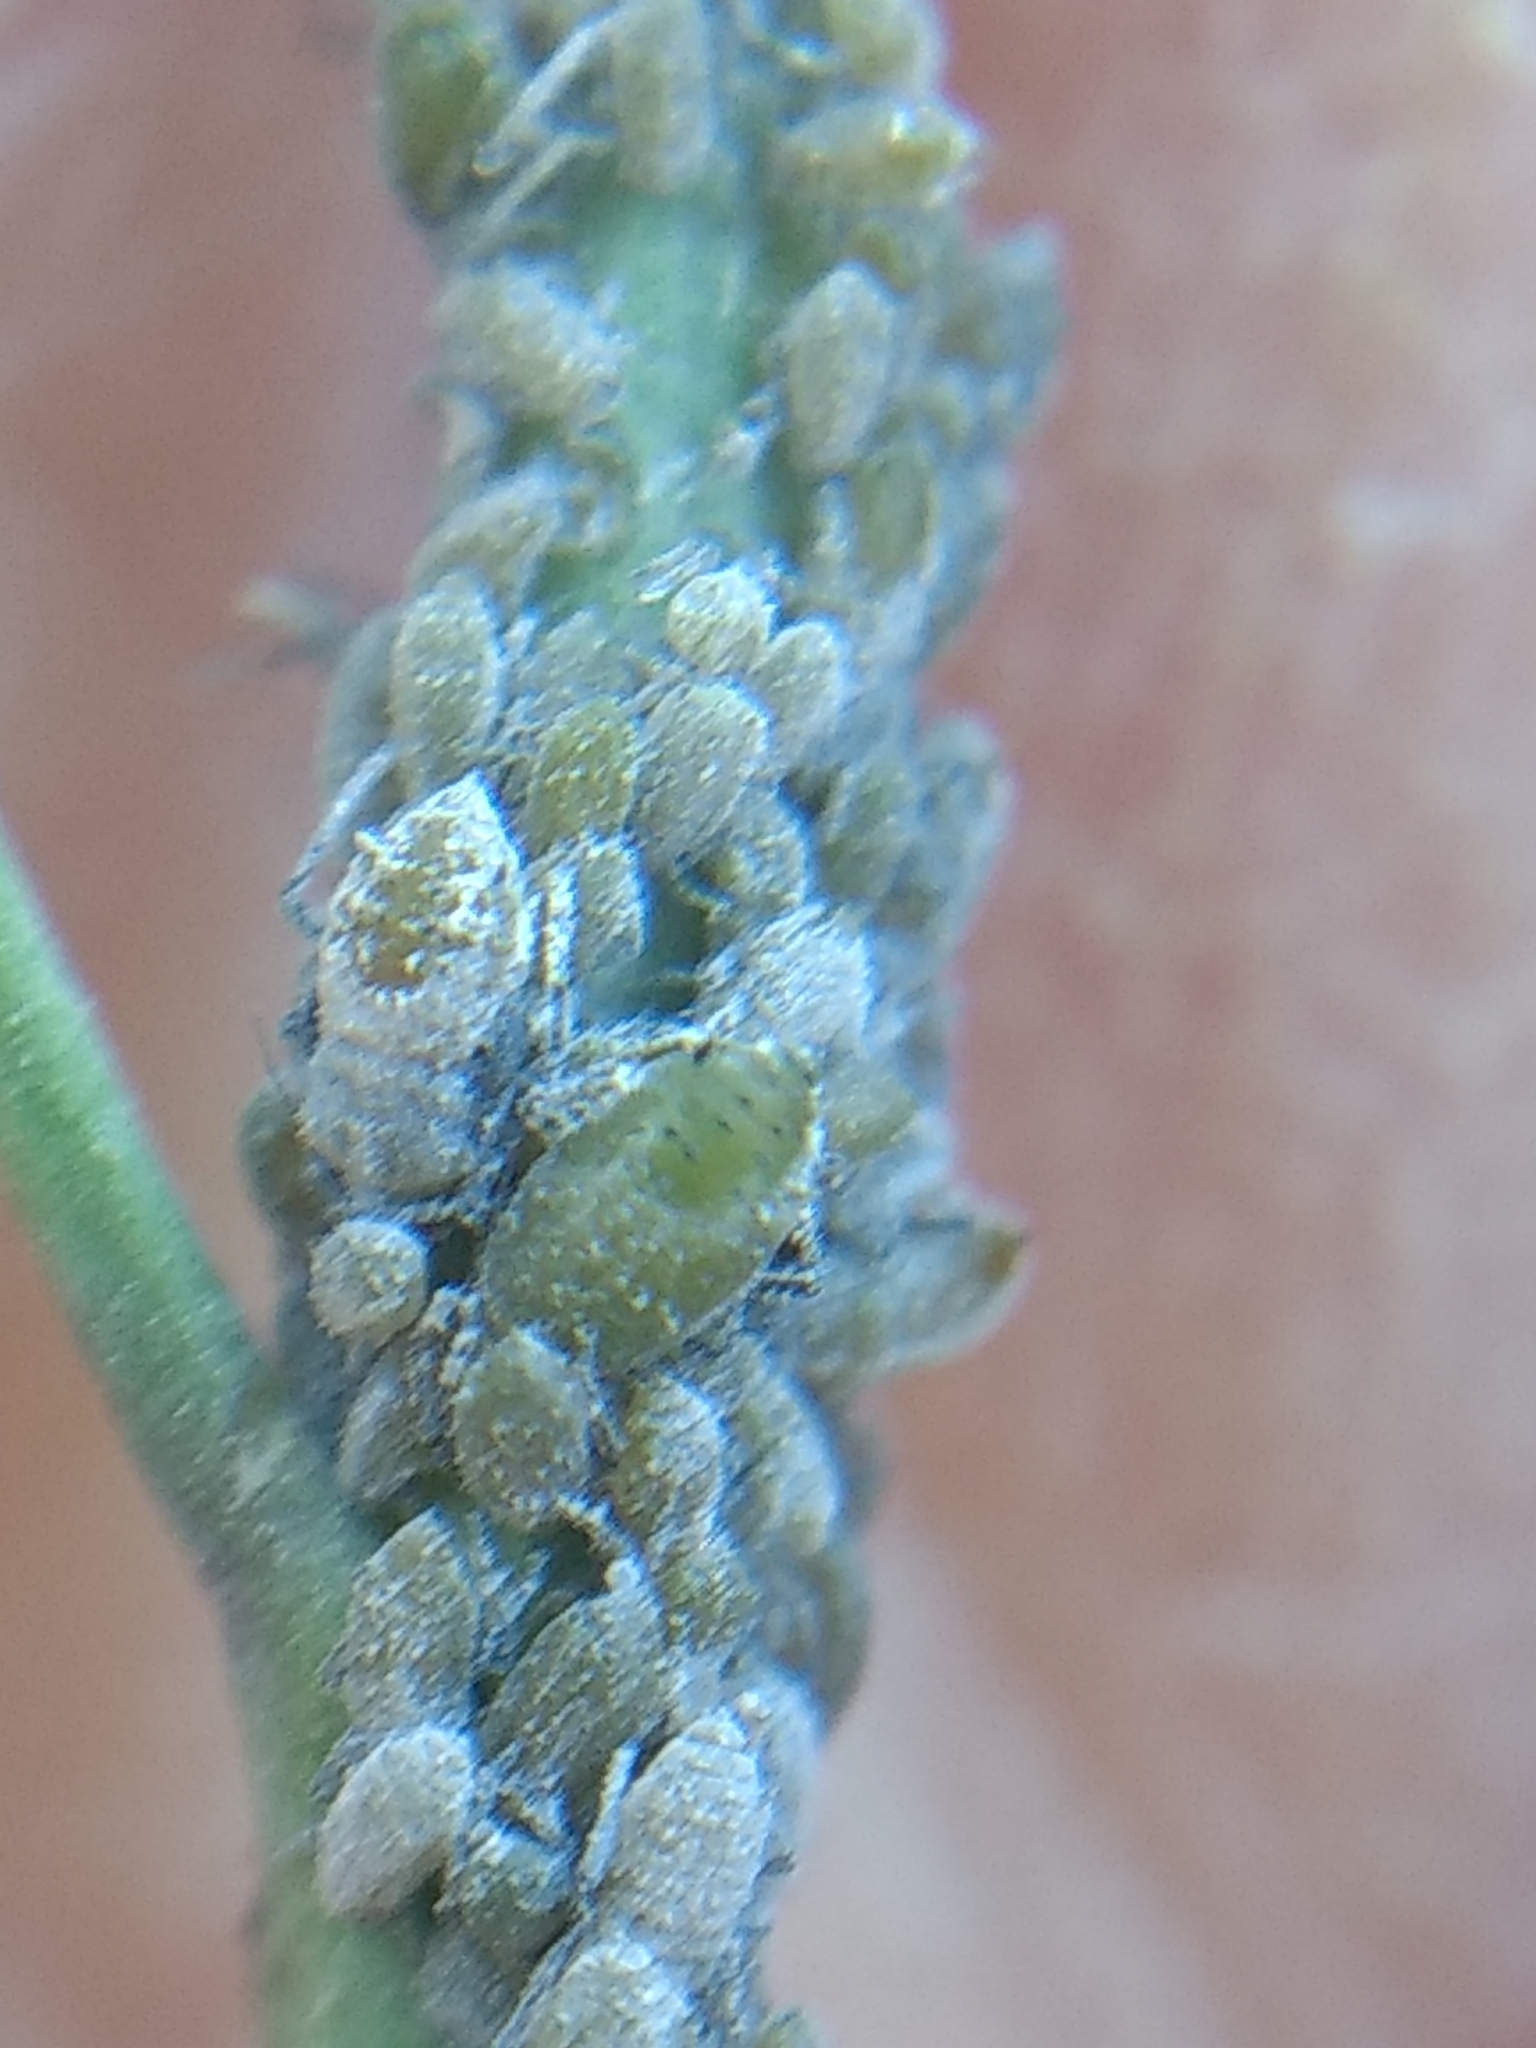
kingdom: Animalia
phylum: Arthropoda
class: Insecta
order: Hemiptera
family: Aphididae
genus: Brevicoryne
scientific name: Brevicoryne brassicae
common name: Cabbage aphid
